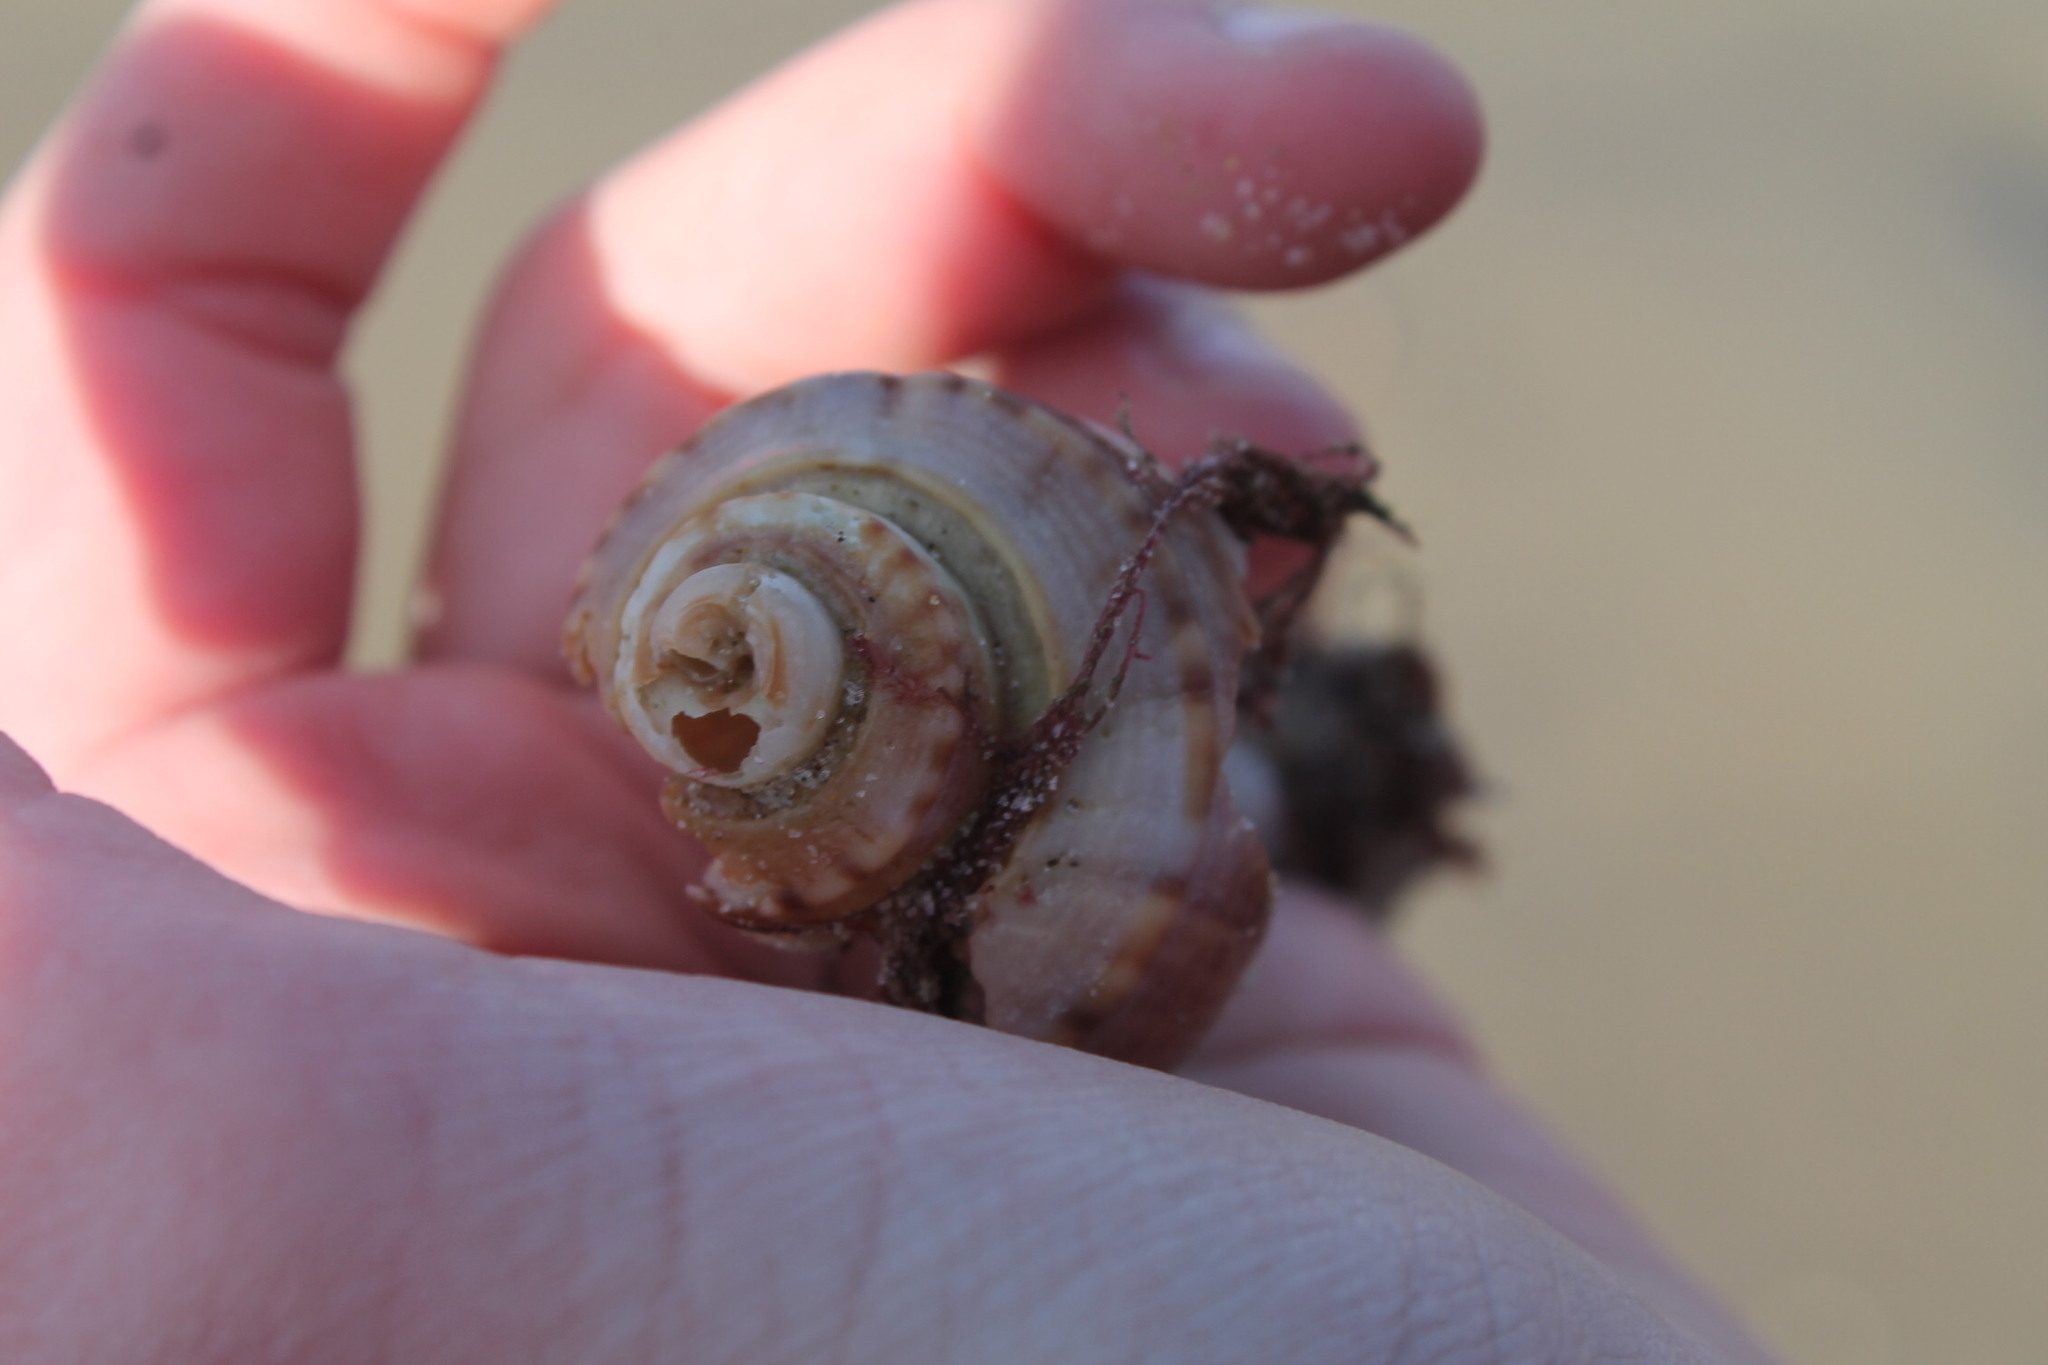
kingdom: Animalia
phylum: Mollusca
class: Gastropoda
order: Neogastropoda
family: Busyconidae
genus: Busycotypus
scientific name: Busycotypus canaliculatus
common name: Channeled whelk
